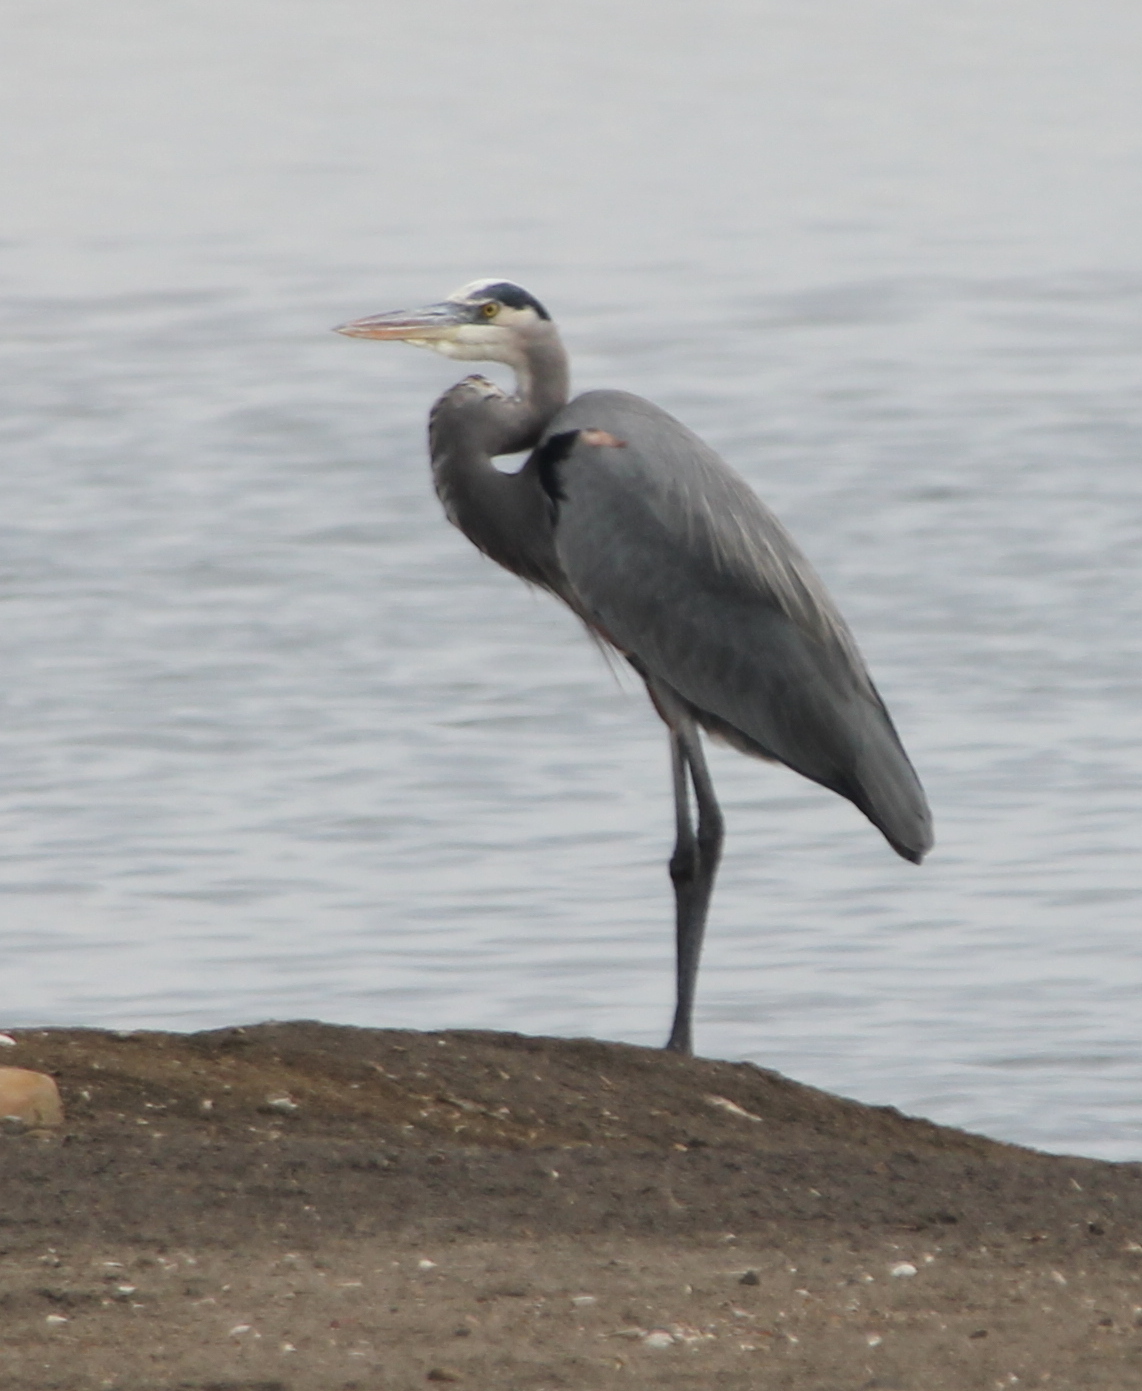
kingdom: Animalia
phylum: Chordata
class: Aves
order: Pelecaniformes
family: Ardeidae
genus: Ardea
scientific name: Ardea herodias
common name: Great blue heron
